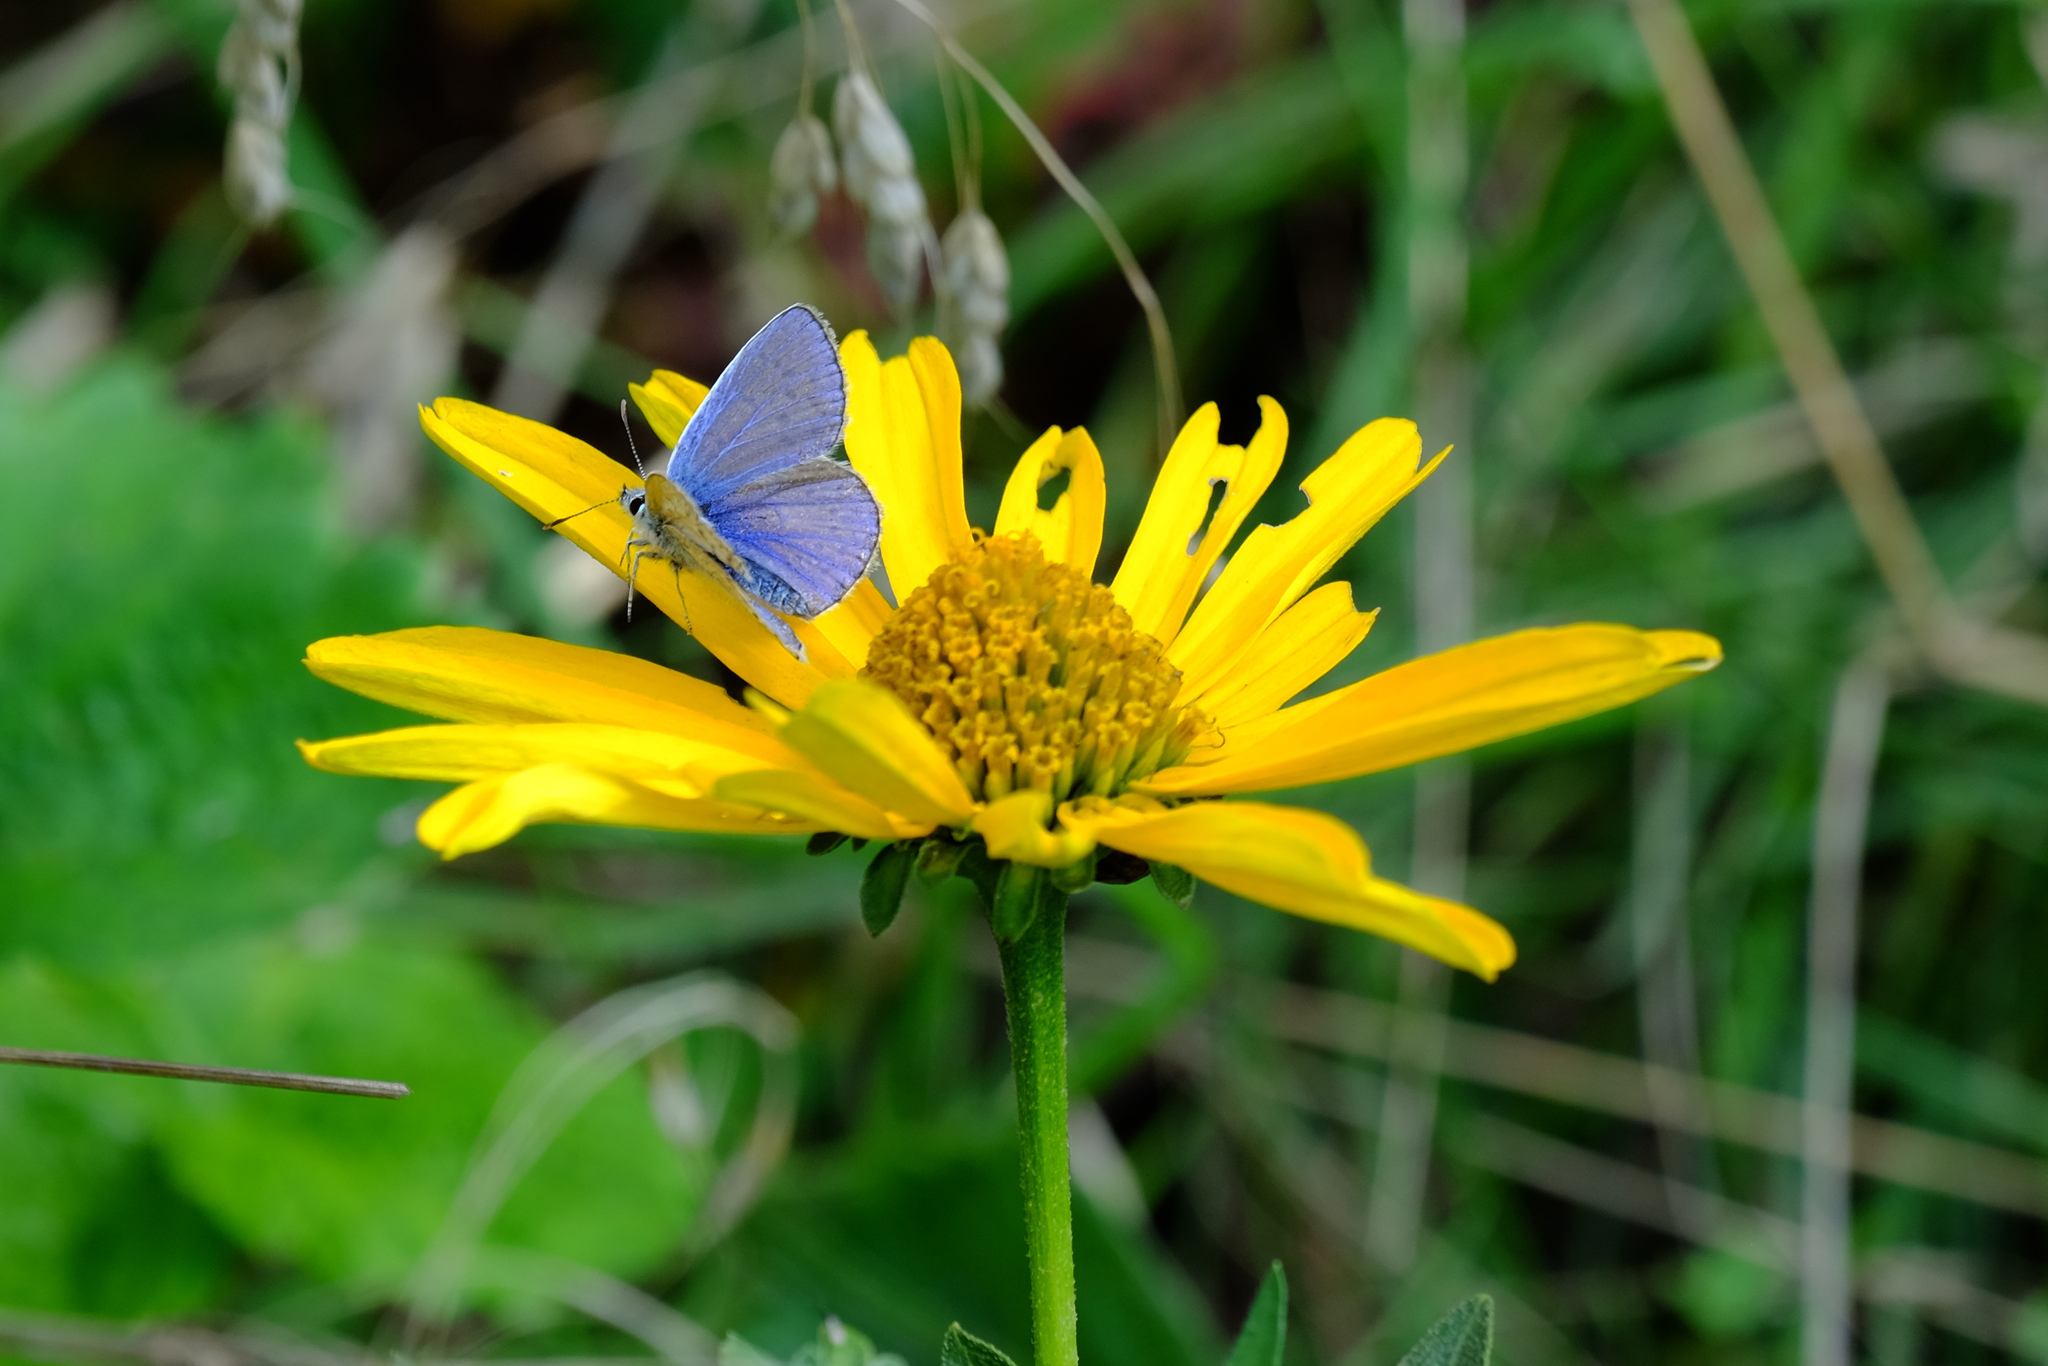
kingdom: Animalia
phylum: Arthropoda
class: Insecta
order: Lepidoptera
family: Lycaenidae
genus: Polyommatus
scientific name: Polyommatus icarus
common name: Common blue
